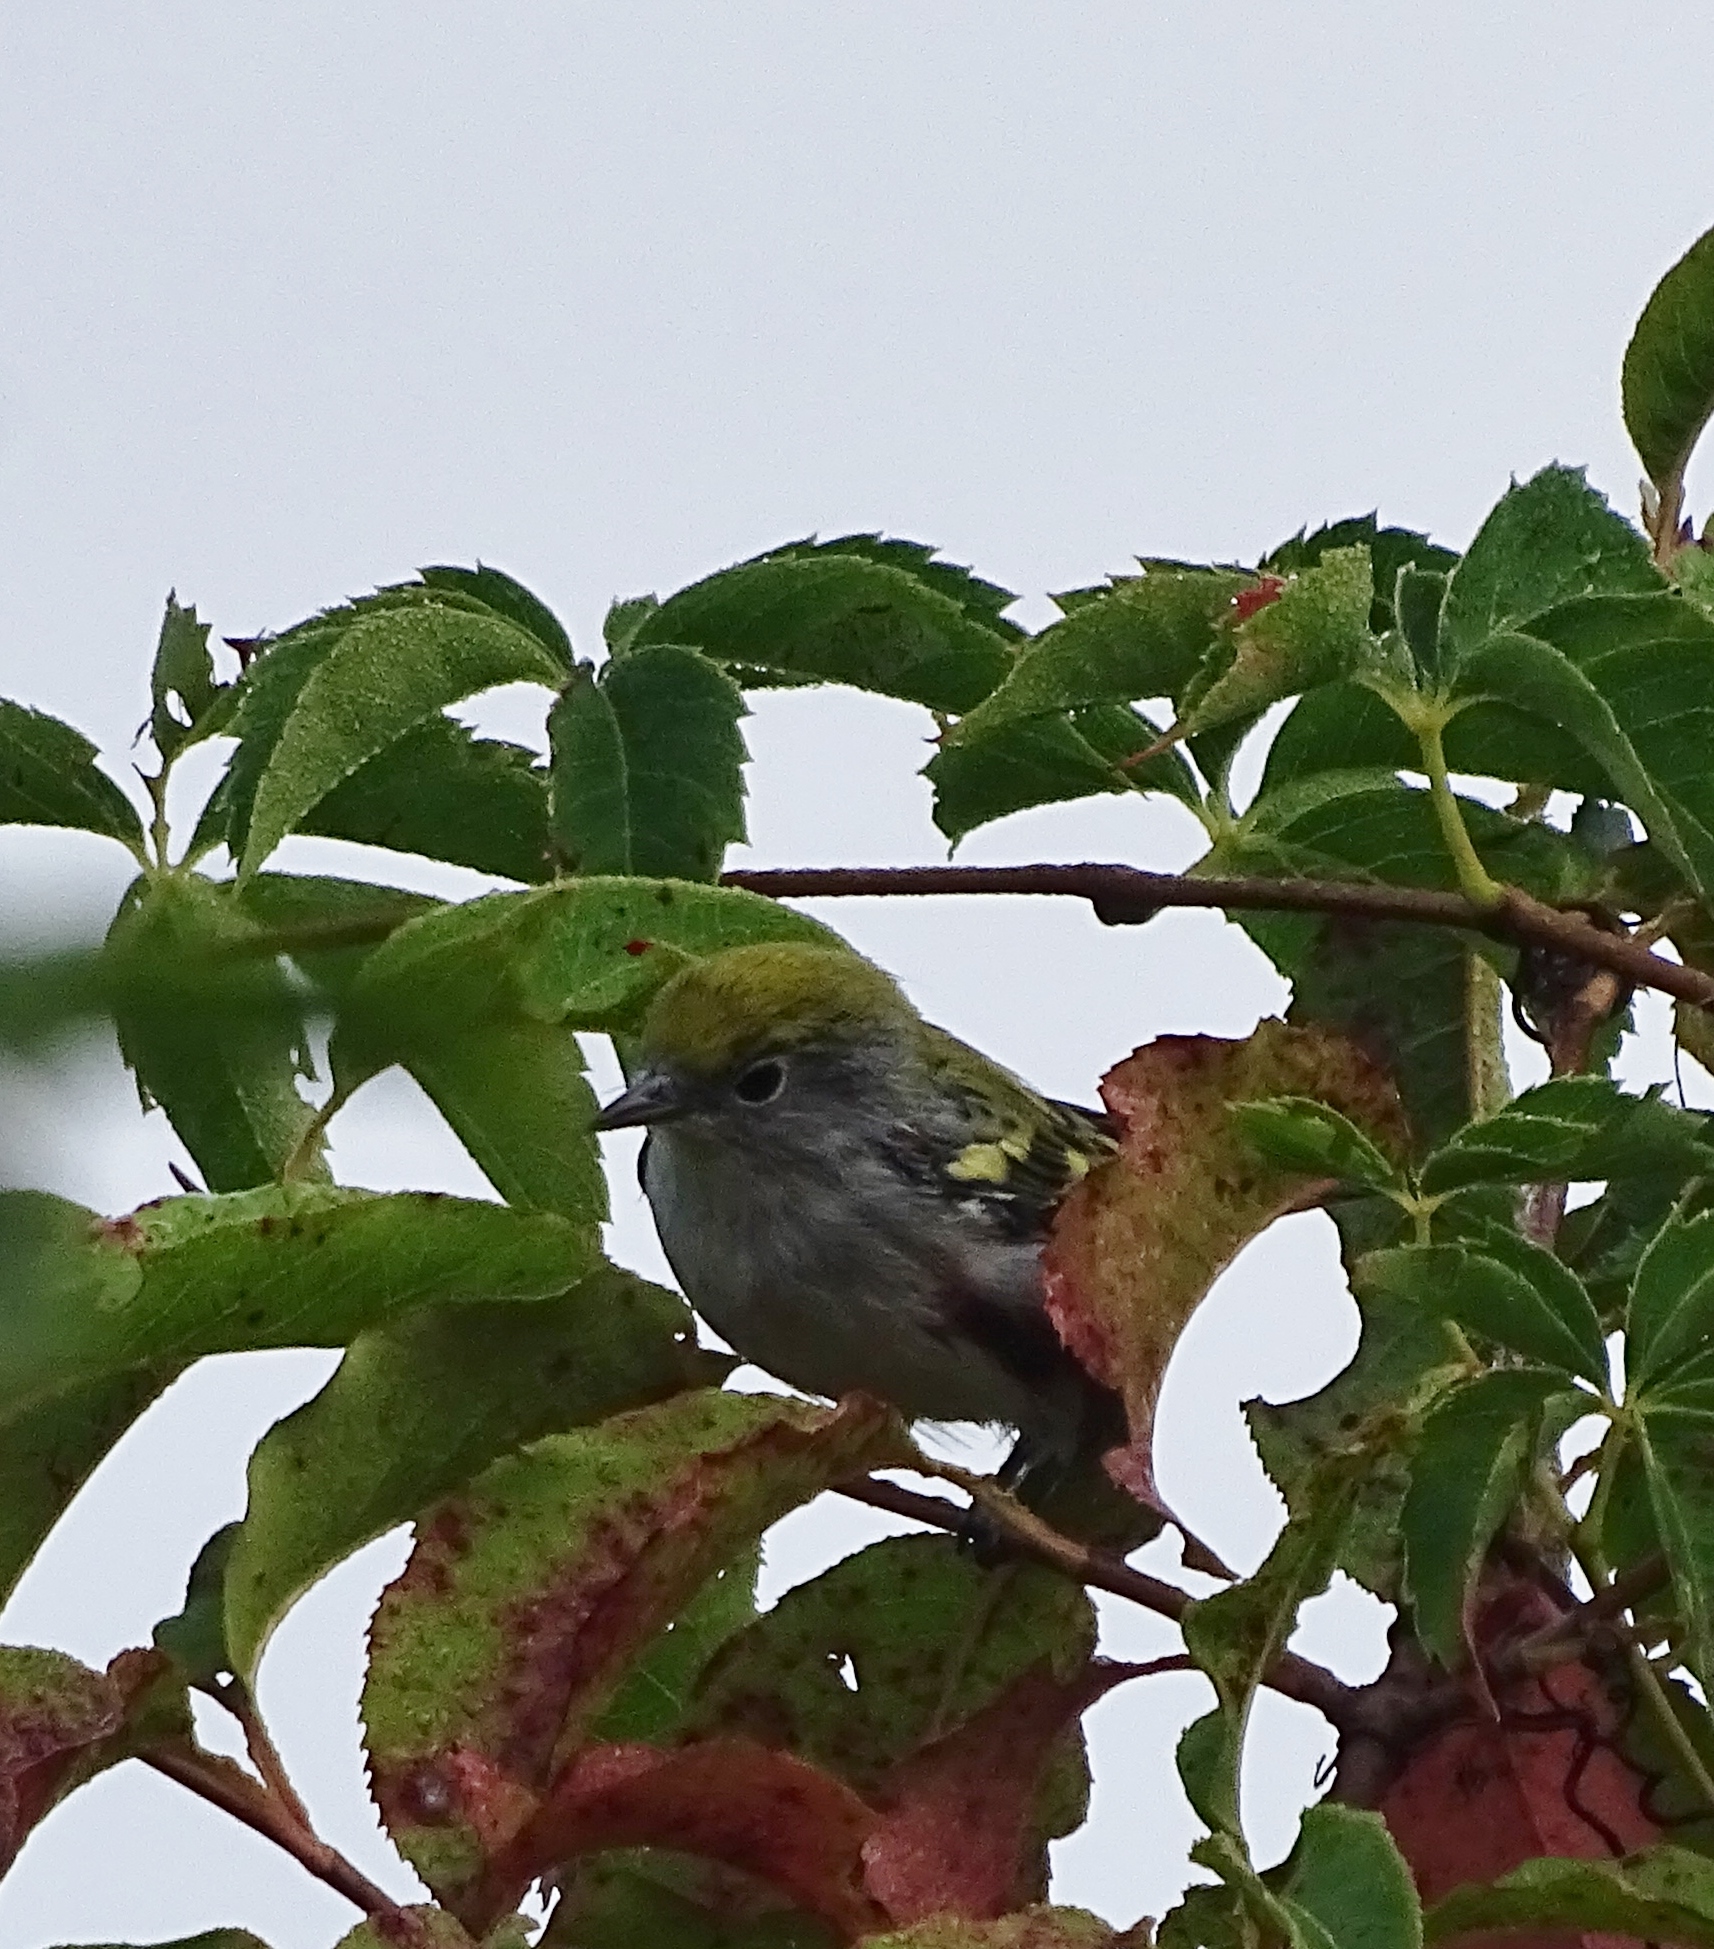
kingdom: Animalia
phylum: Chordata
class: Aves
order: Passeriformes
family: Parulidae
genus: Setophaga
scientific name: Setophaga pensylvanica
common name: Chestnut-sided warbler
